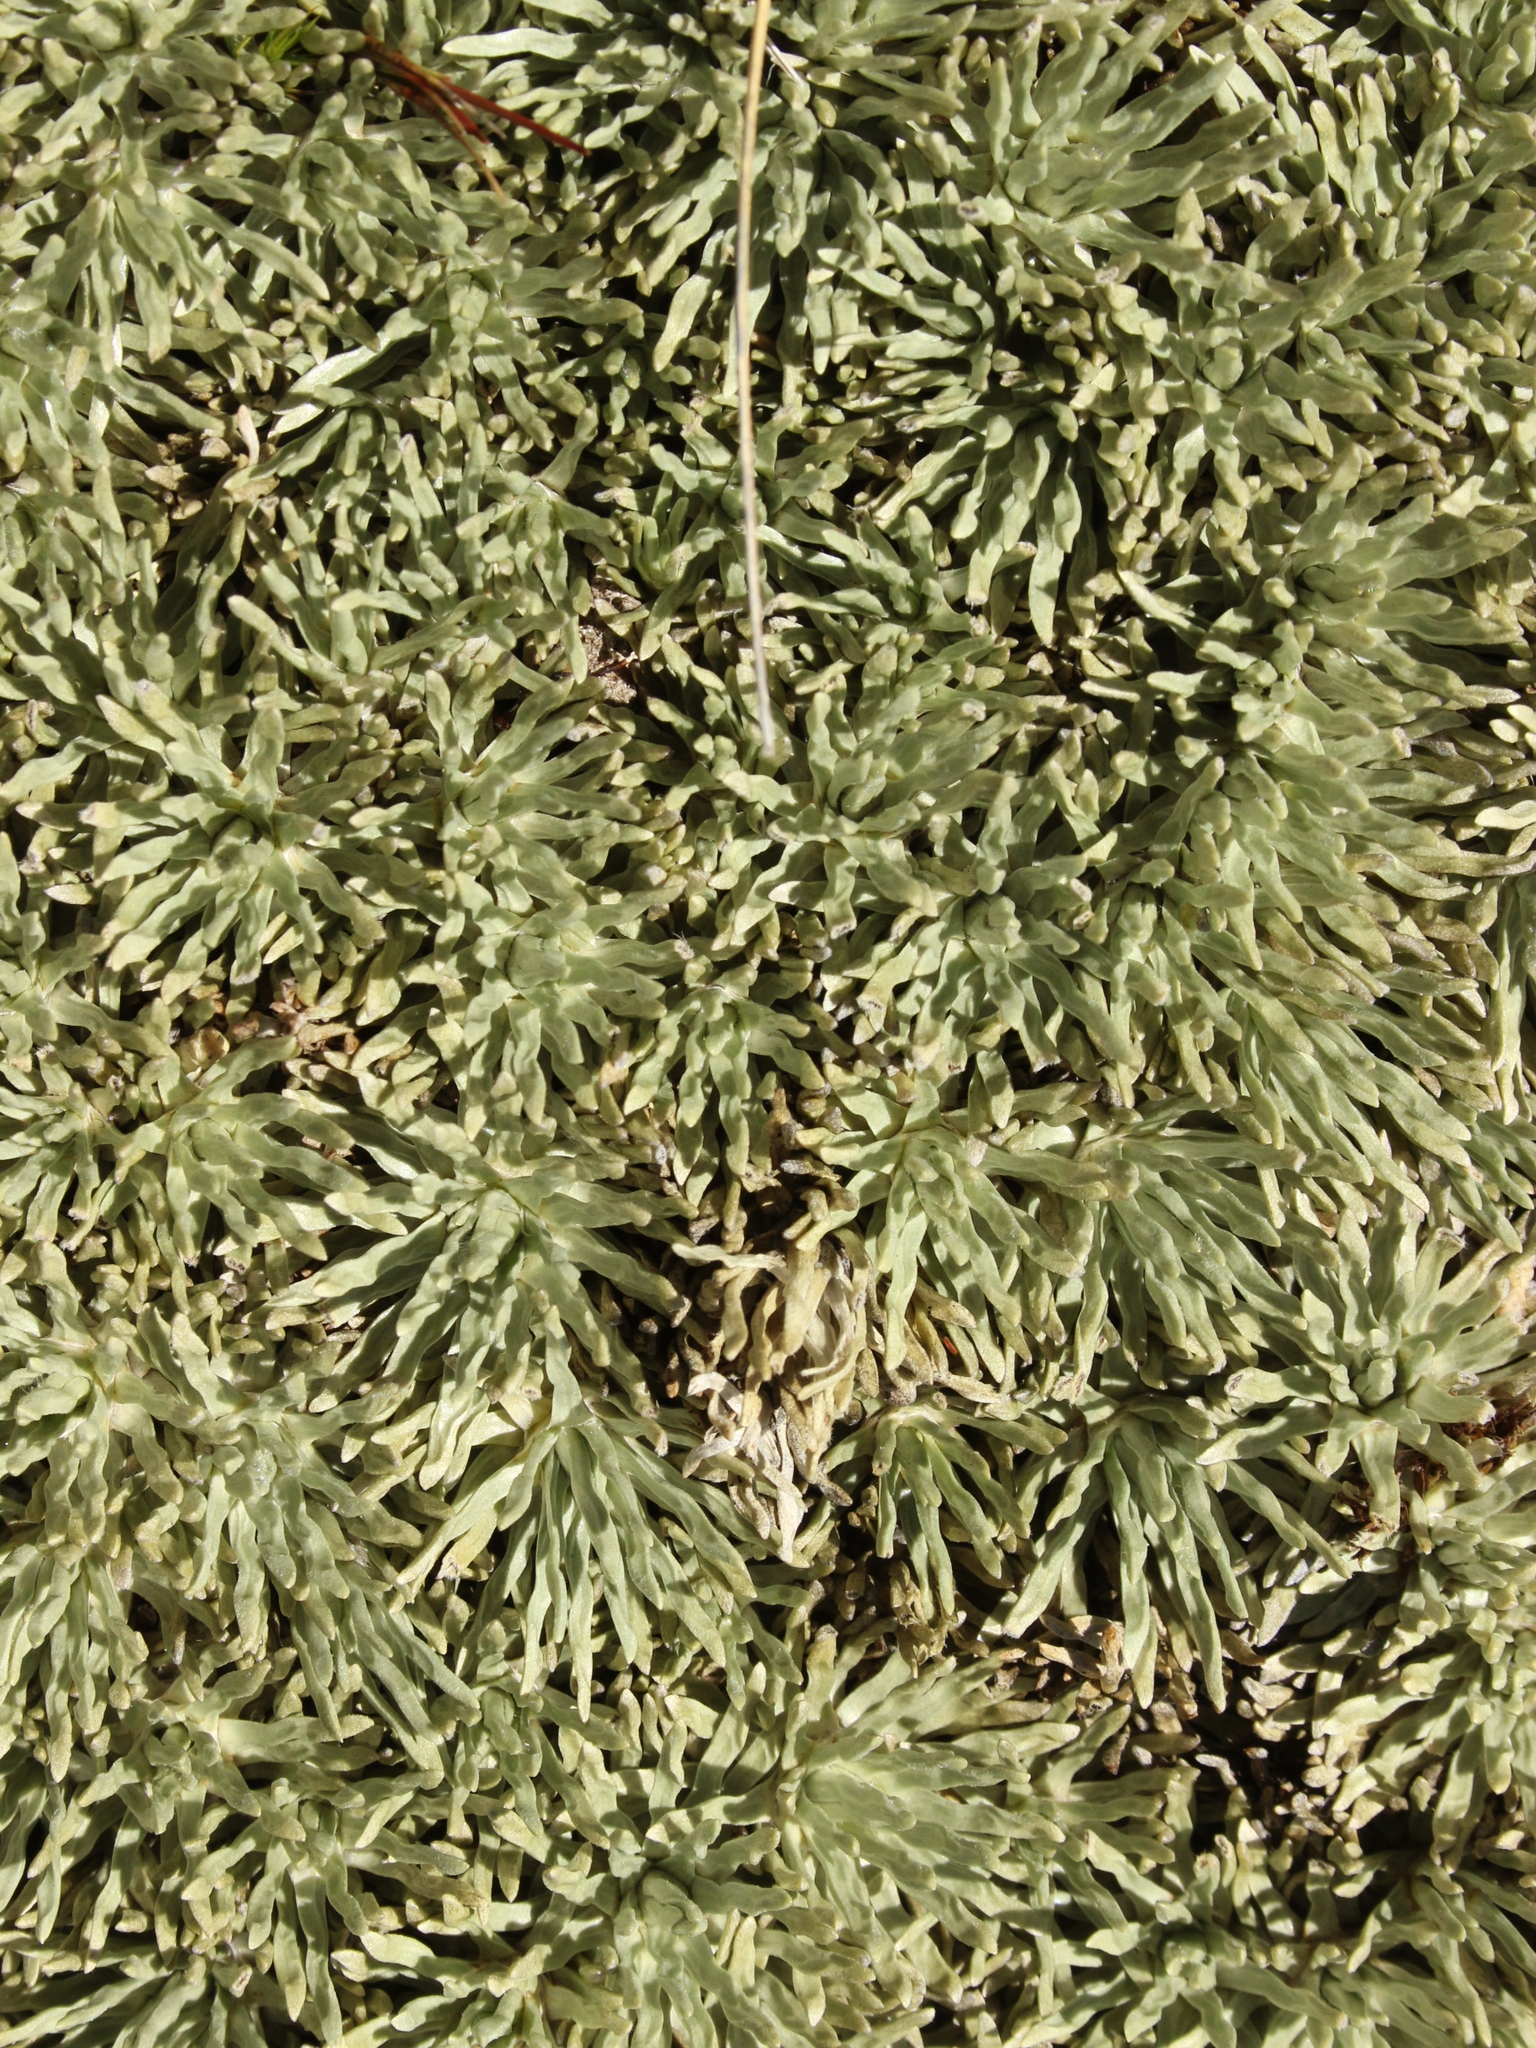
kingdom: Plantae
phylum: Tracheophyta
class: Magnoliopsida
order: Asterales
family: Asteraceae
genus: Celmisia
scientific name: Celmisia sessiliflora
